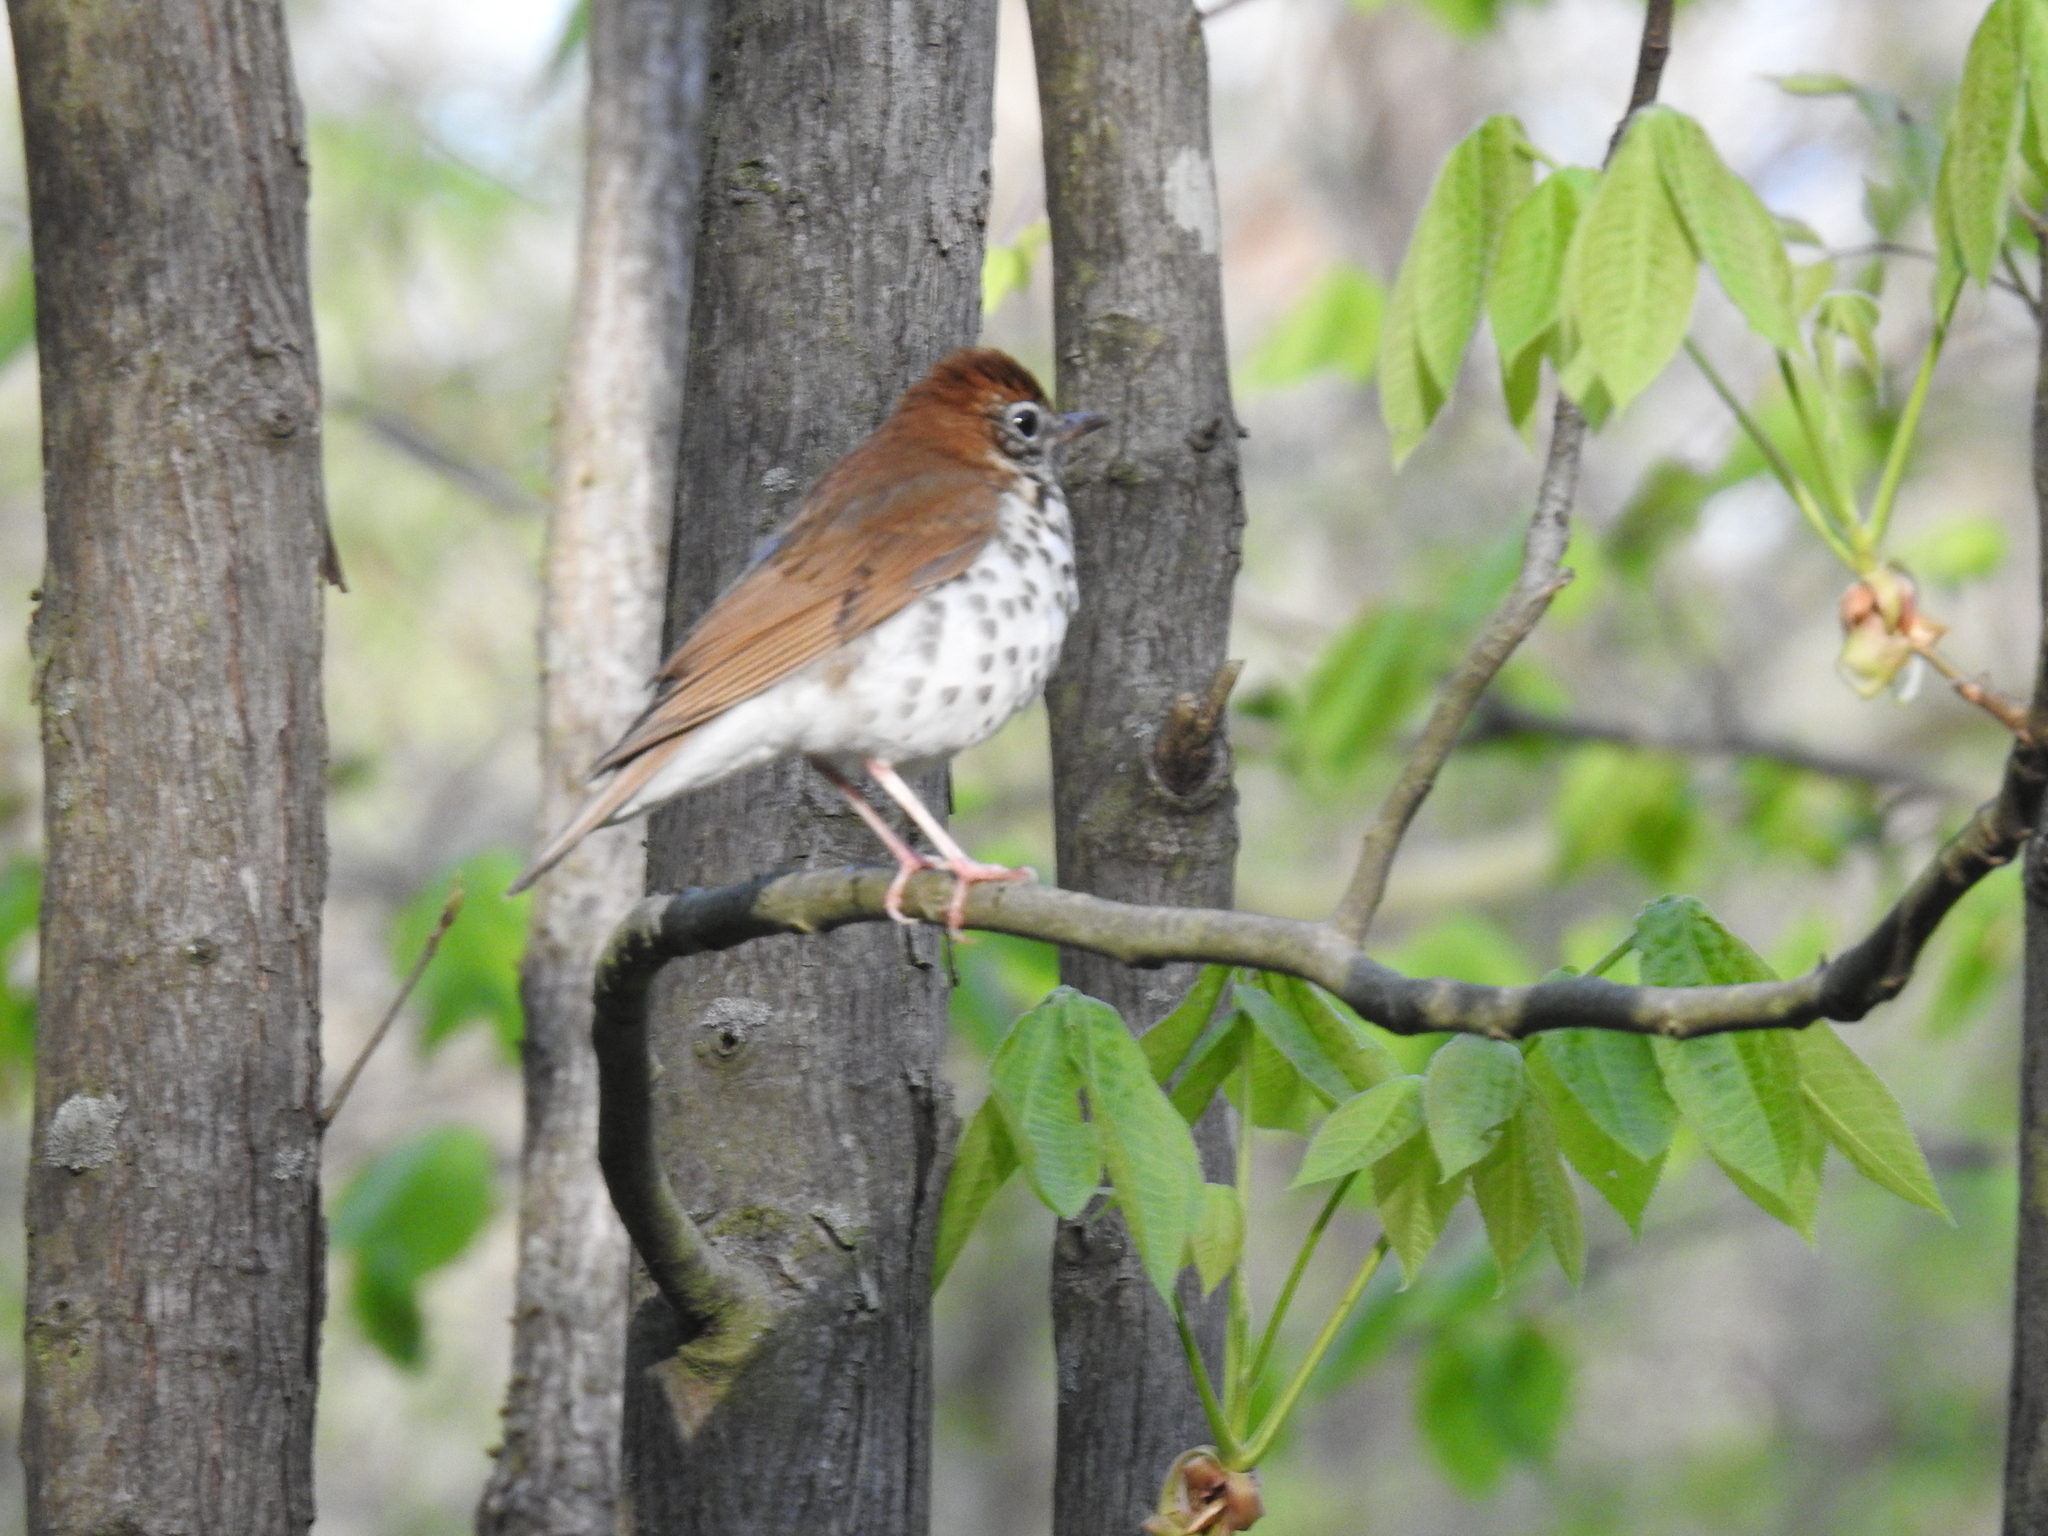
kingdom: Animalia
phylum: Chordata
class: Aves
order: Passeriformes
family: Turdidae
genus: Hylocichla
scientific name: Hylocichla mustelina
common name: Wood thrush
